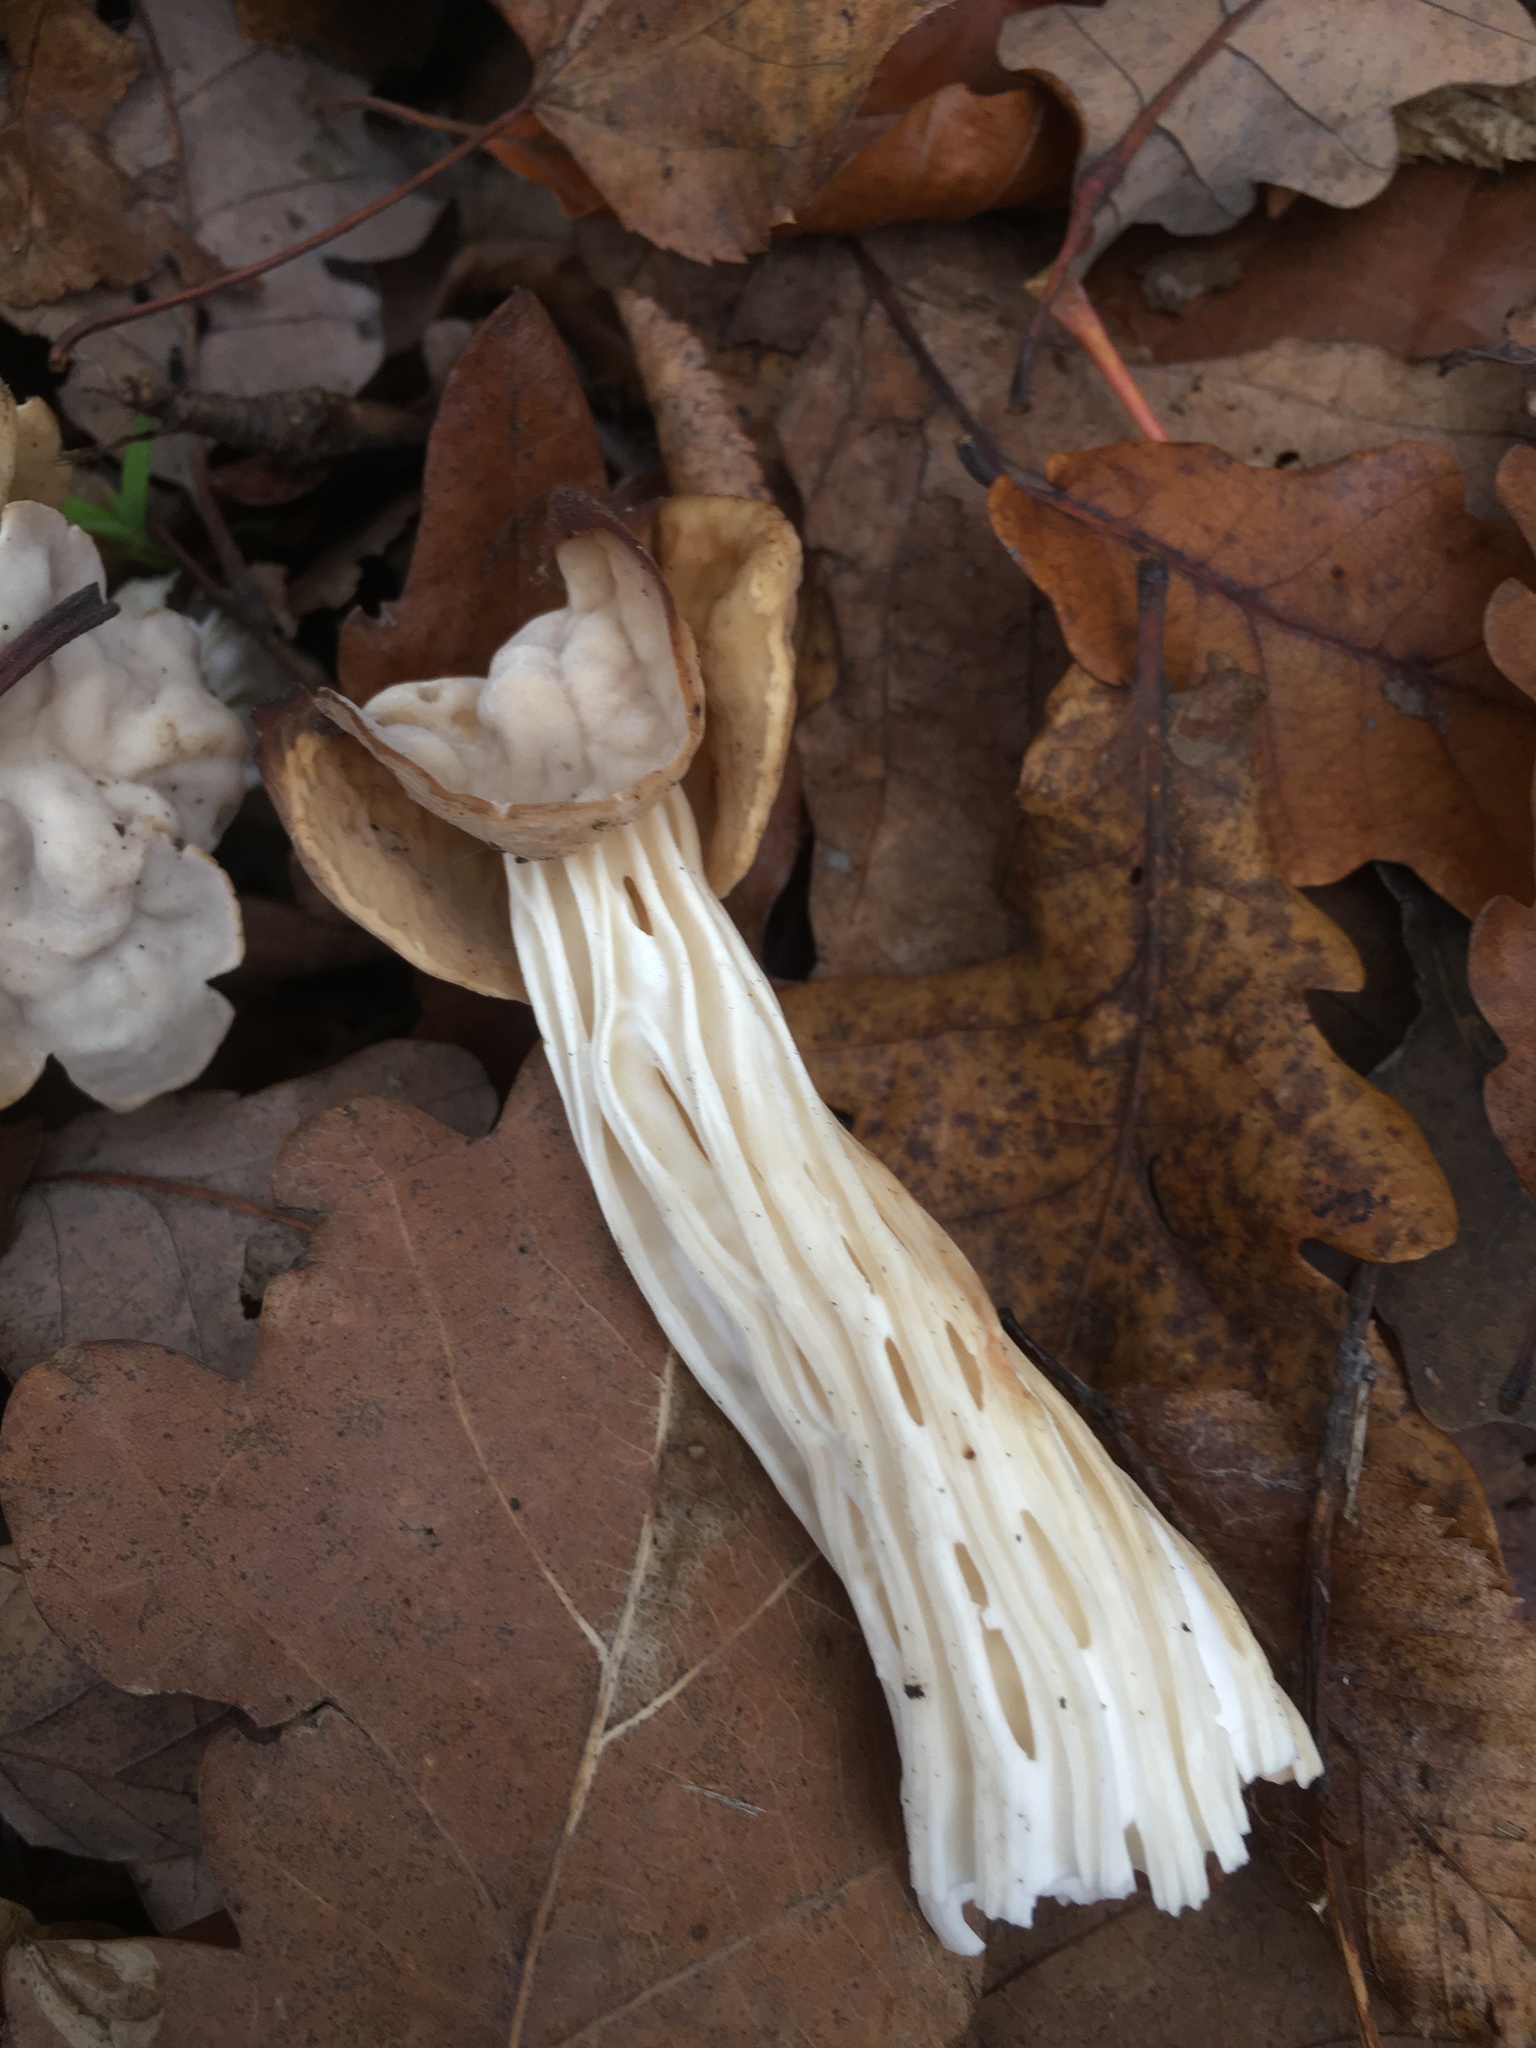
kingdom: Fungi
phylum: Ascomycota
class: Pezizomycetes
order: Pezizales
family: Helvellaceae
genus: Helvella
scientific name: Helvella crispa
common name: White saddle
